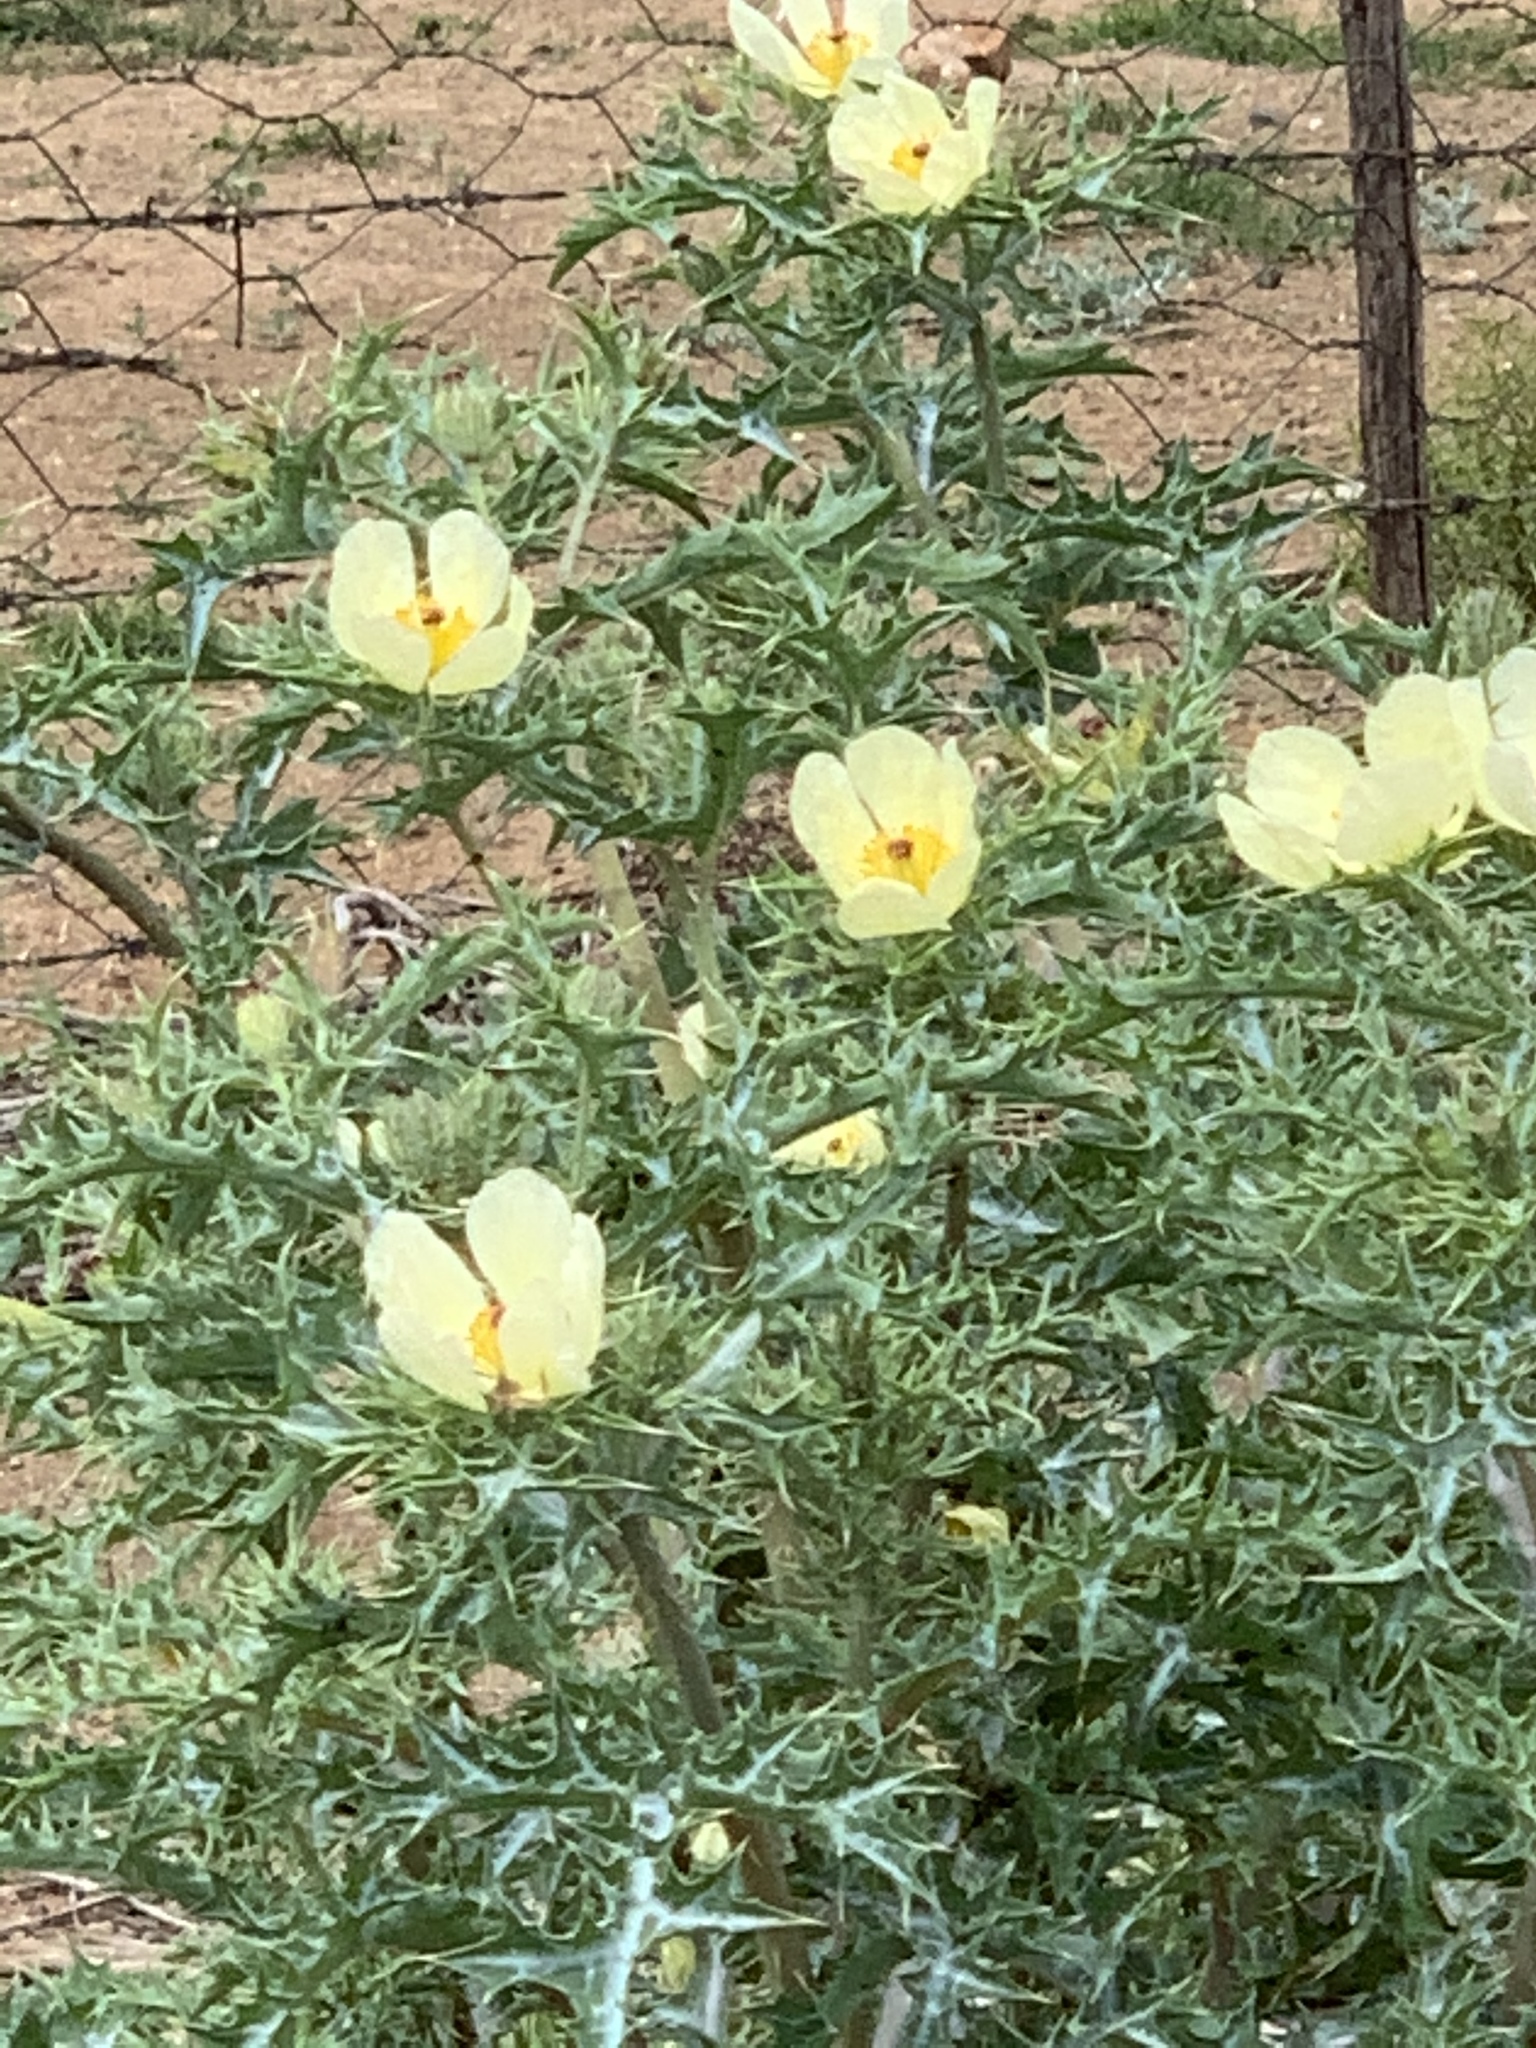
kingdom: Plantae
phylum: Tracheophyta
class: Magnoliopsida
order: Ranunculales
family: Papaveraceae
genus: Argemone
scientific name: Argemone ochroleuca
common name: White-flower mexican-poppy
